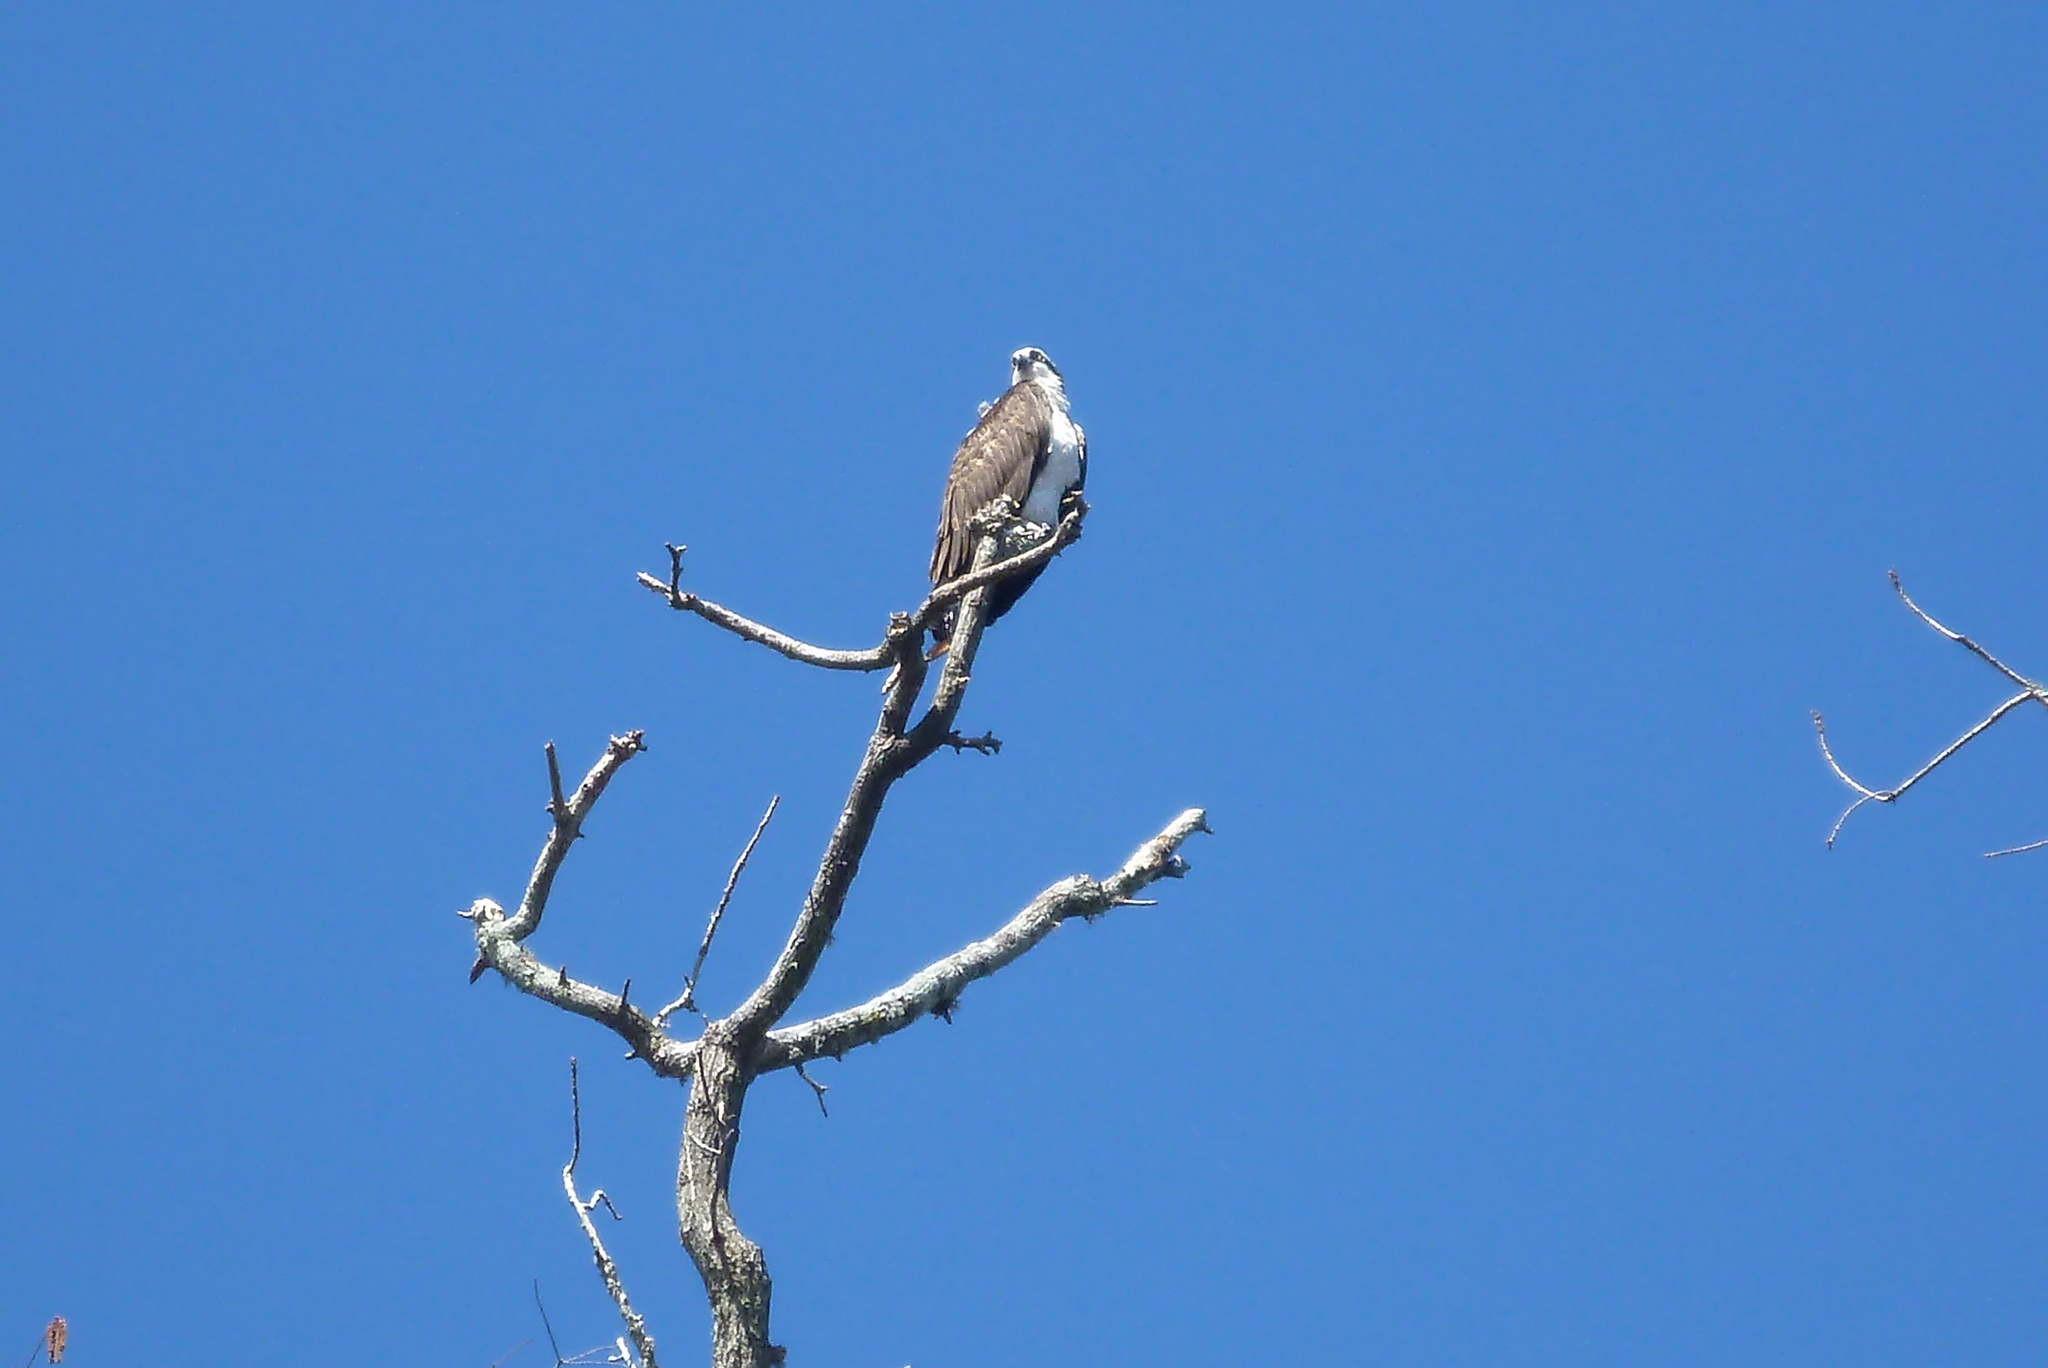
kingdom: Animalia
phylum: Chordata
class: Aves
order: Accipitriformes
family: Pandionidae
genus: Pandion
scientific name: Pandion haliaetus
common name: Osprey
